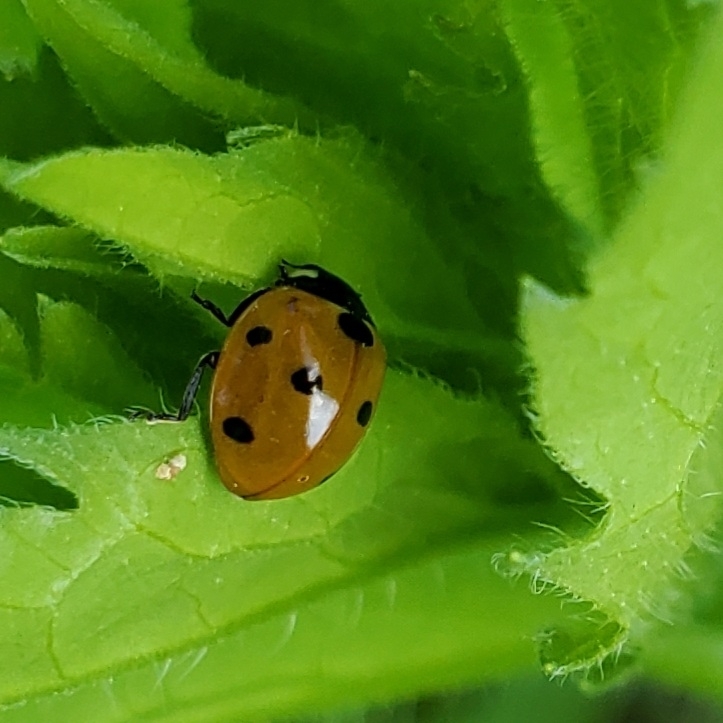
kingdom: Animalia
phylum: Arthropoda
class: Insecta
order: Coleoptera
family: Coccinellidae
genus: Coccinella
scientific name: Coccinella septempunctata
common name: Sevenspotted lady beetle
